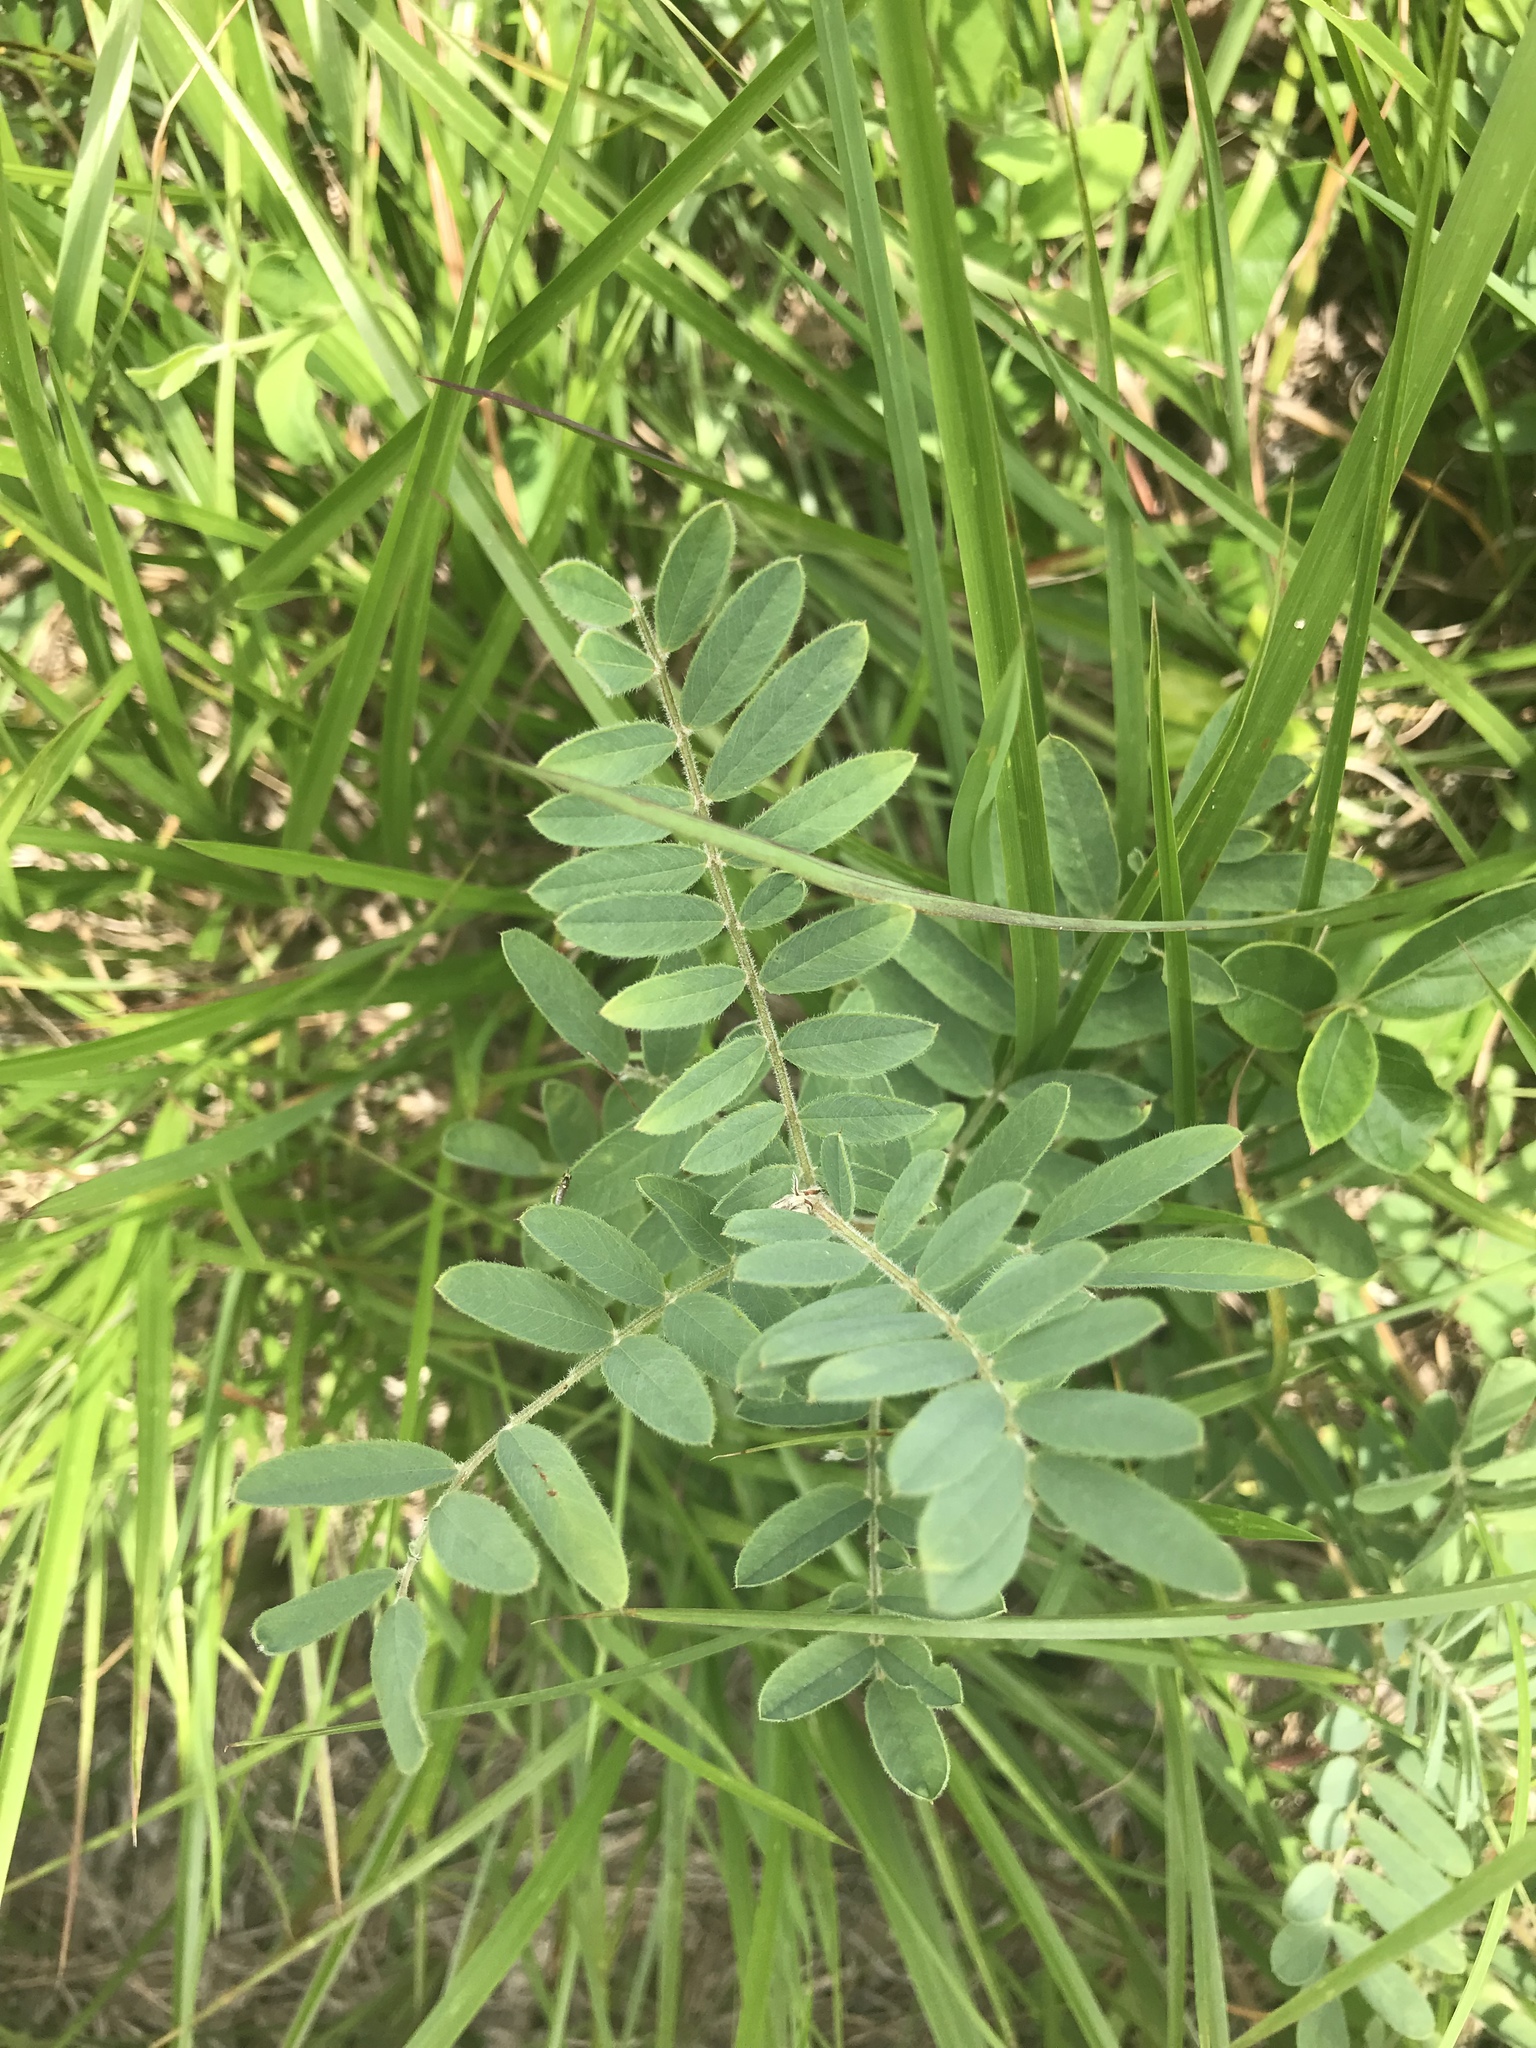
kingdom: Plantae
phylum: Tracheophyta
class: Magnoliopsida
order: Fabales
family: Fabaceae
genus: Tephrosia
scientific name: Tephrosia virginiana
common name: Rabbit-pea
